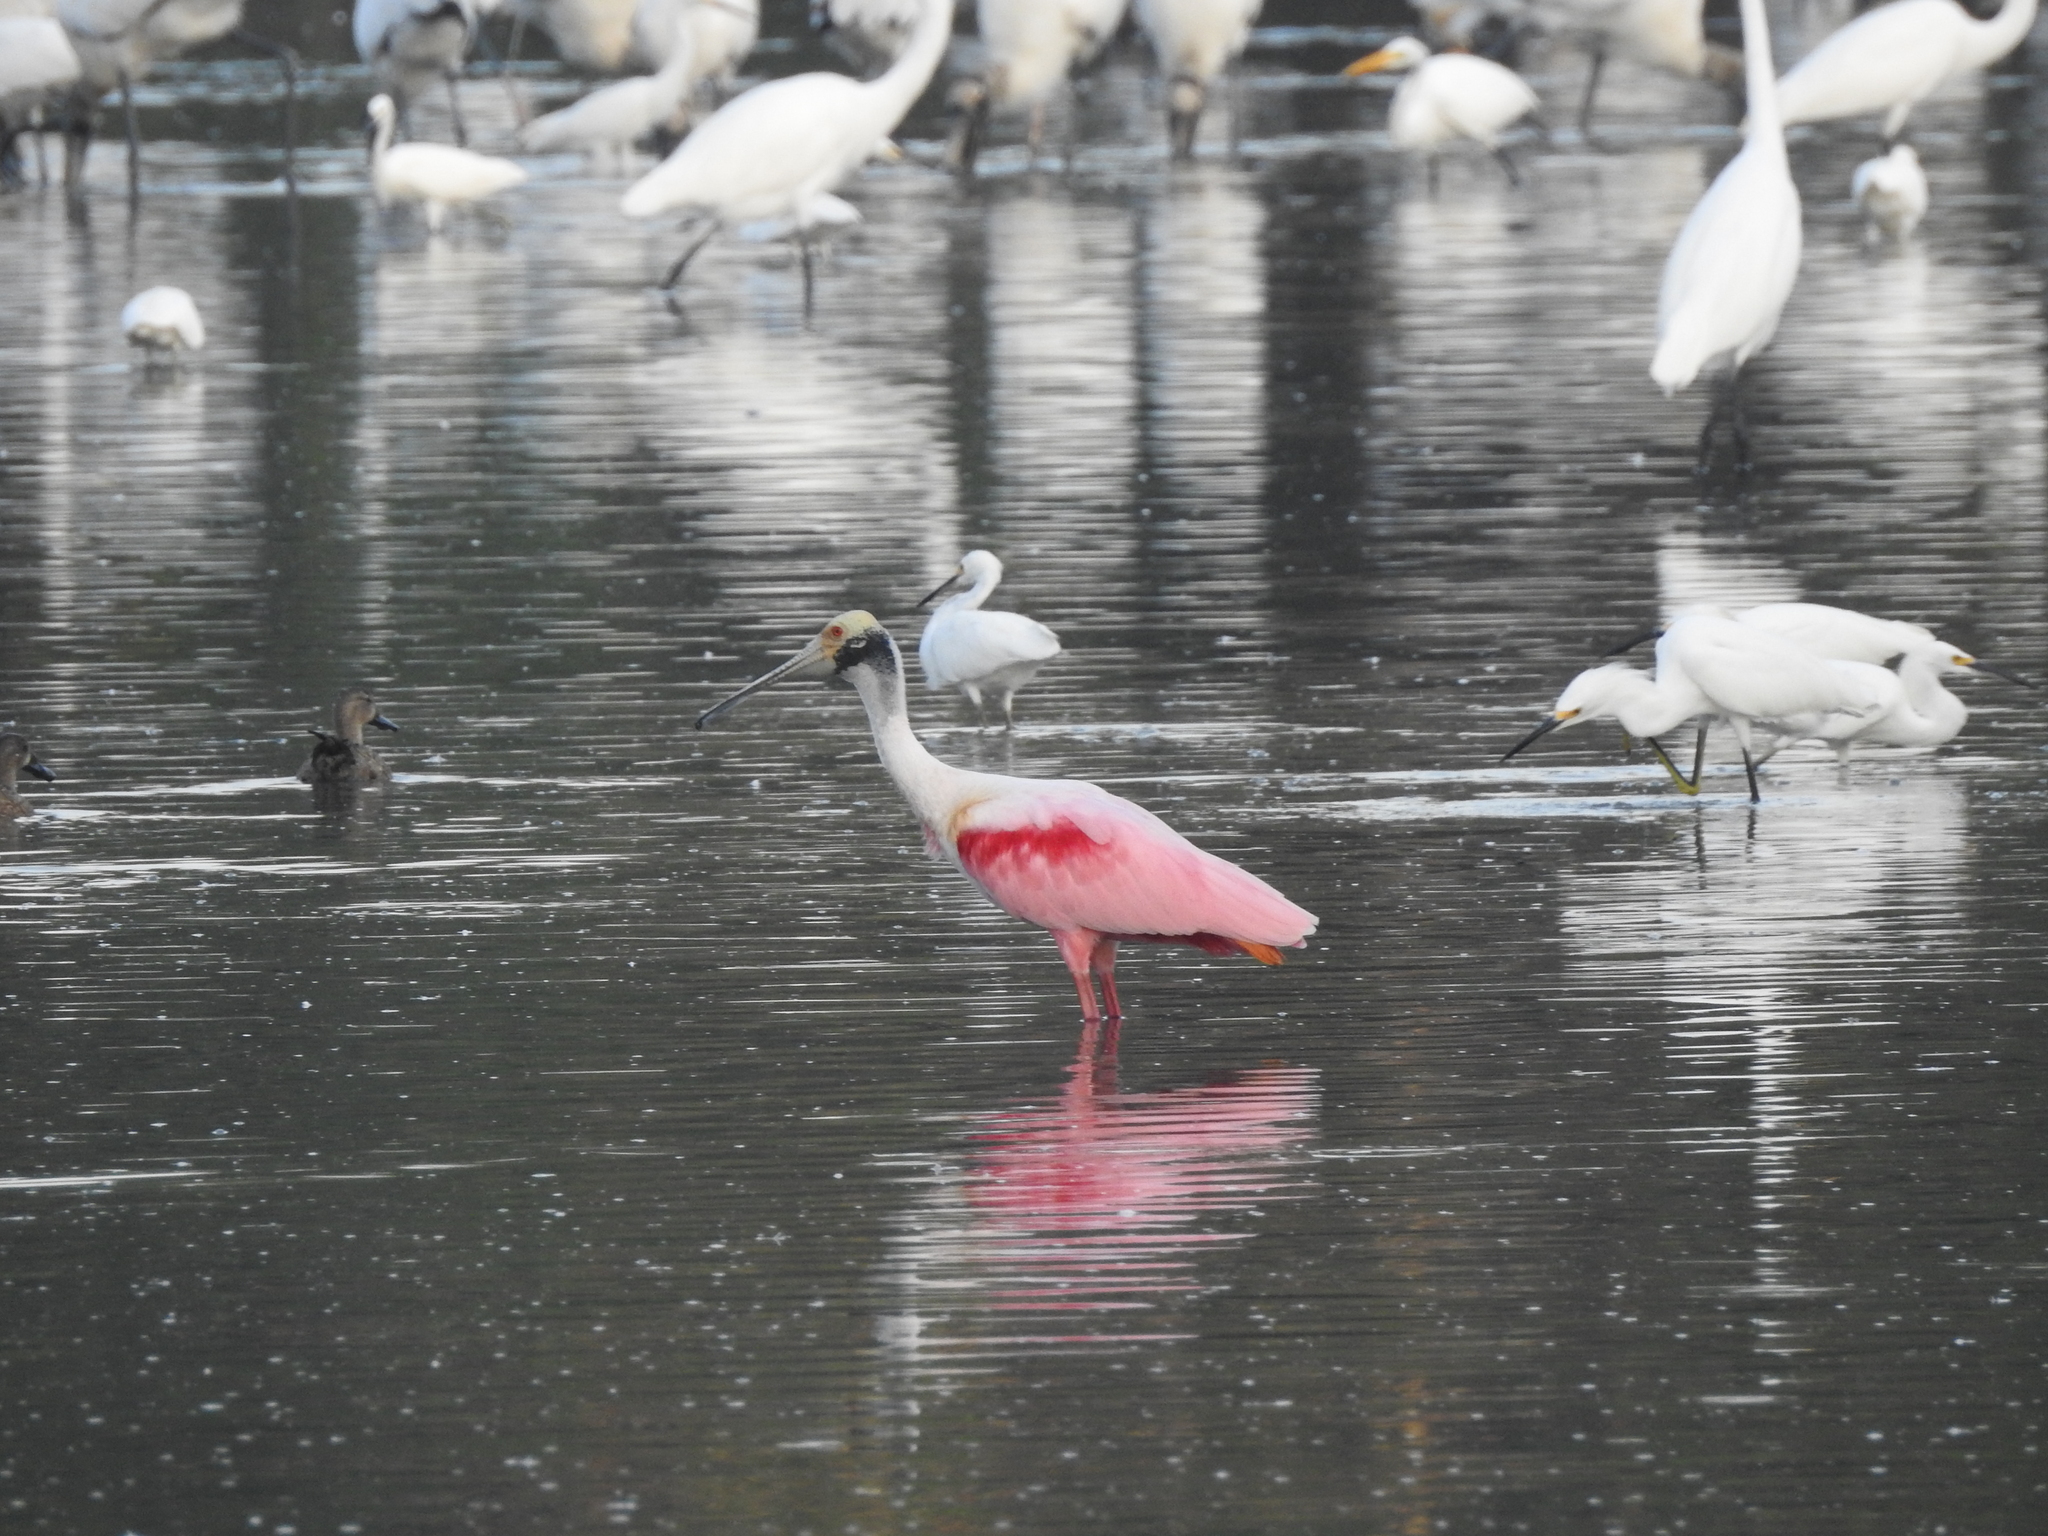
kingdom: Animalia
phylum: Chordata
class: Aves
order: Pelecaniformes
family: Threskiornithidae
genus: Platalea
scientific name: Platalea ajaja
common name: Roseate spoonbill
